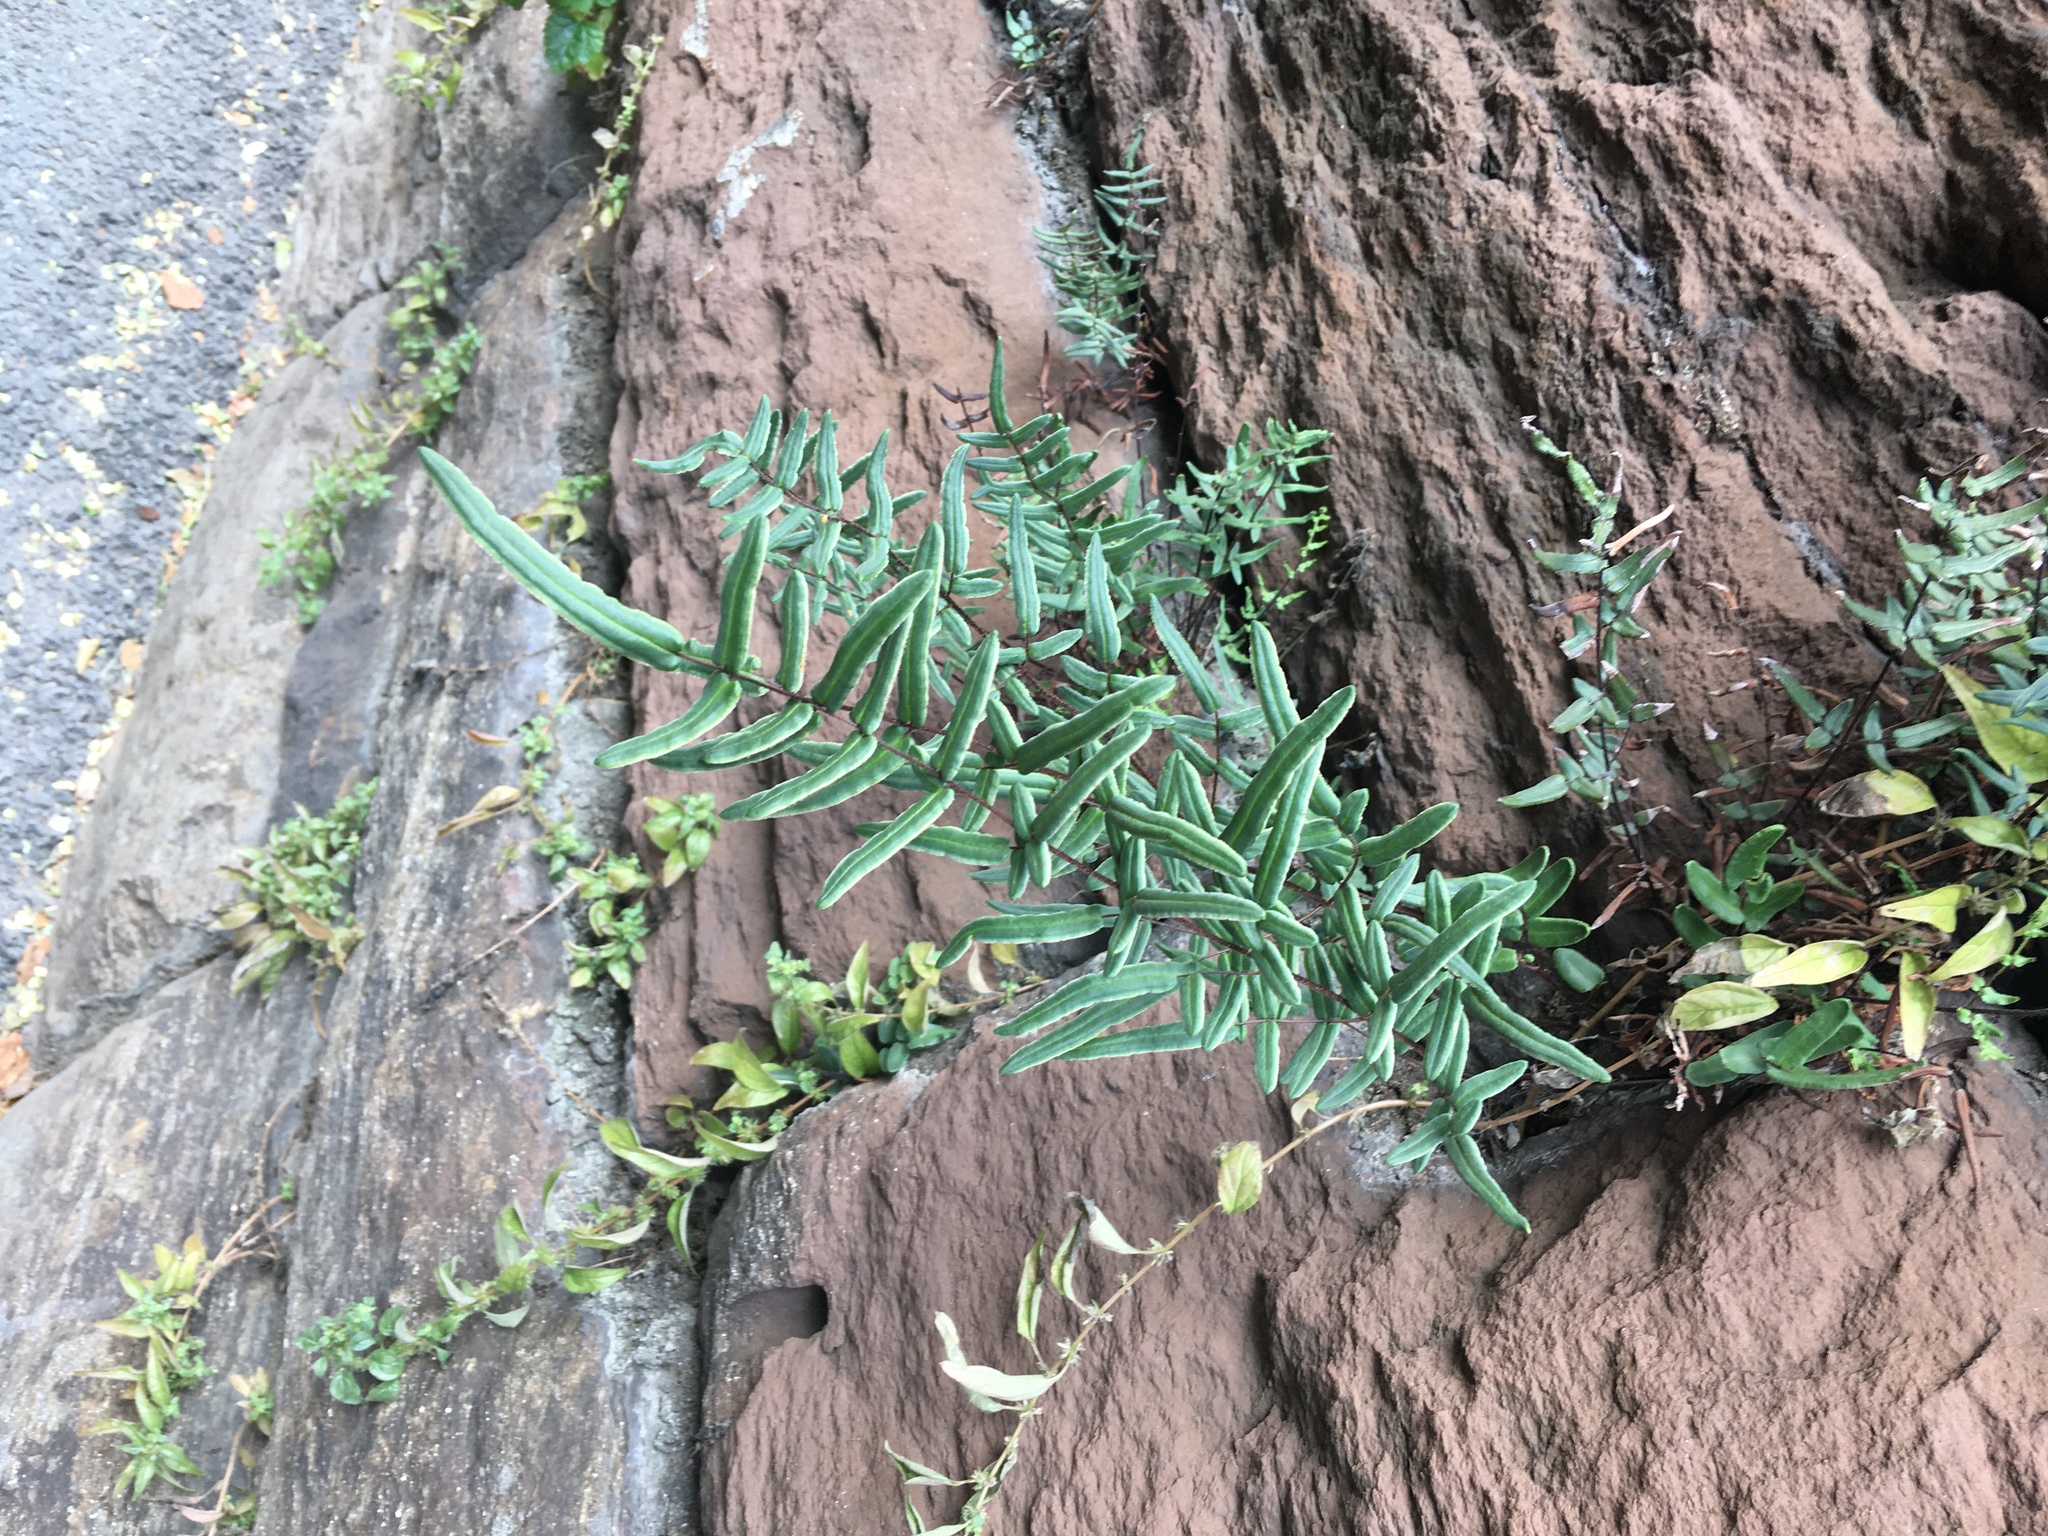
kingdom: Plantae
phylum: Tracheophyta
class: Polypodiopsida
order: Polypodiales
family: Pteridaceae
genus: Pellaea
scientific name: Pellaea atropurpurea
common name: Hairy cliffbrake
